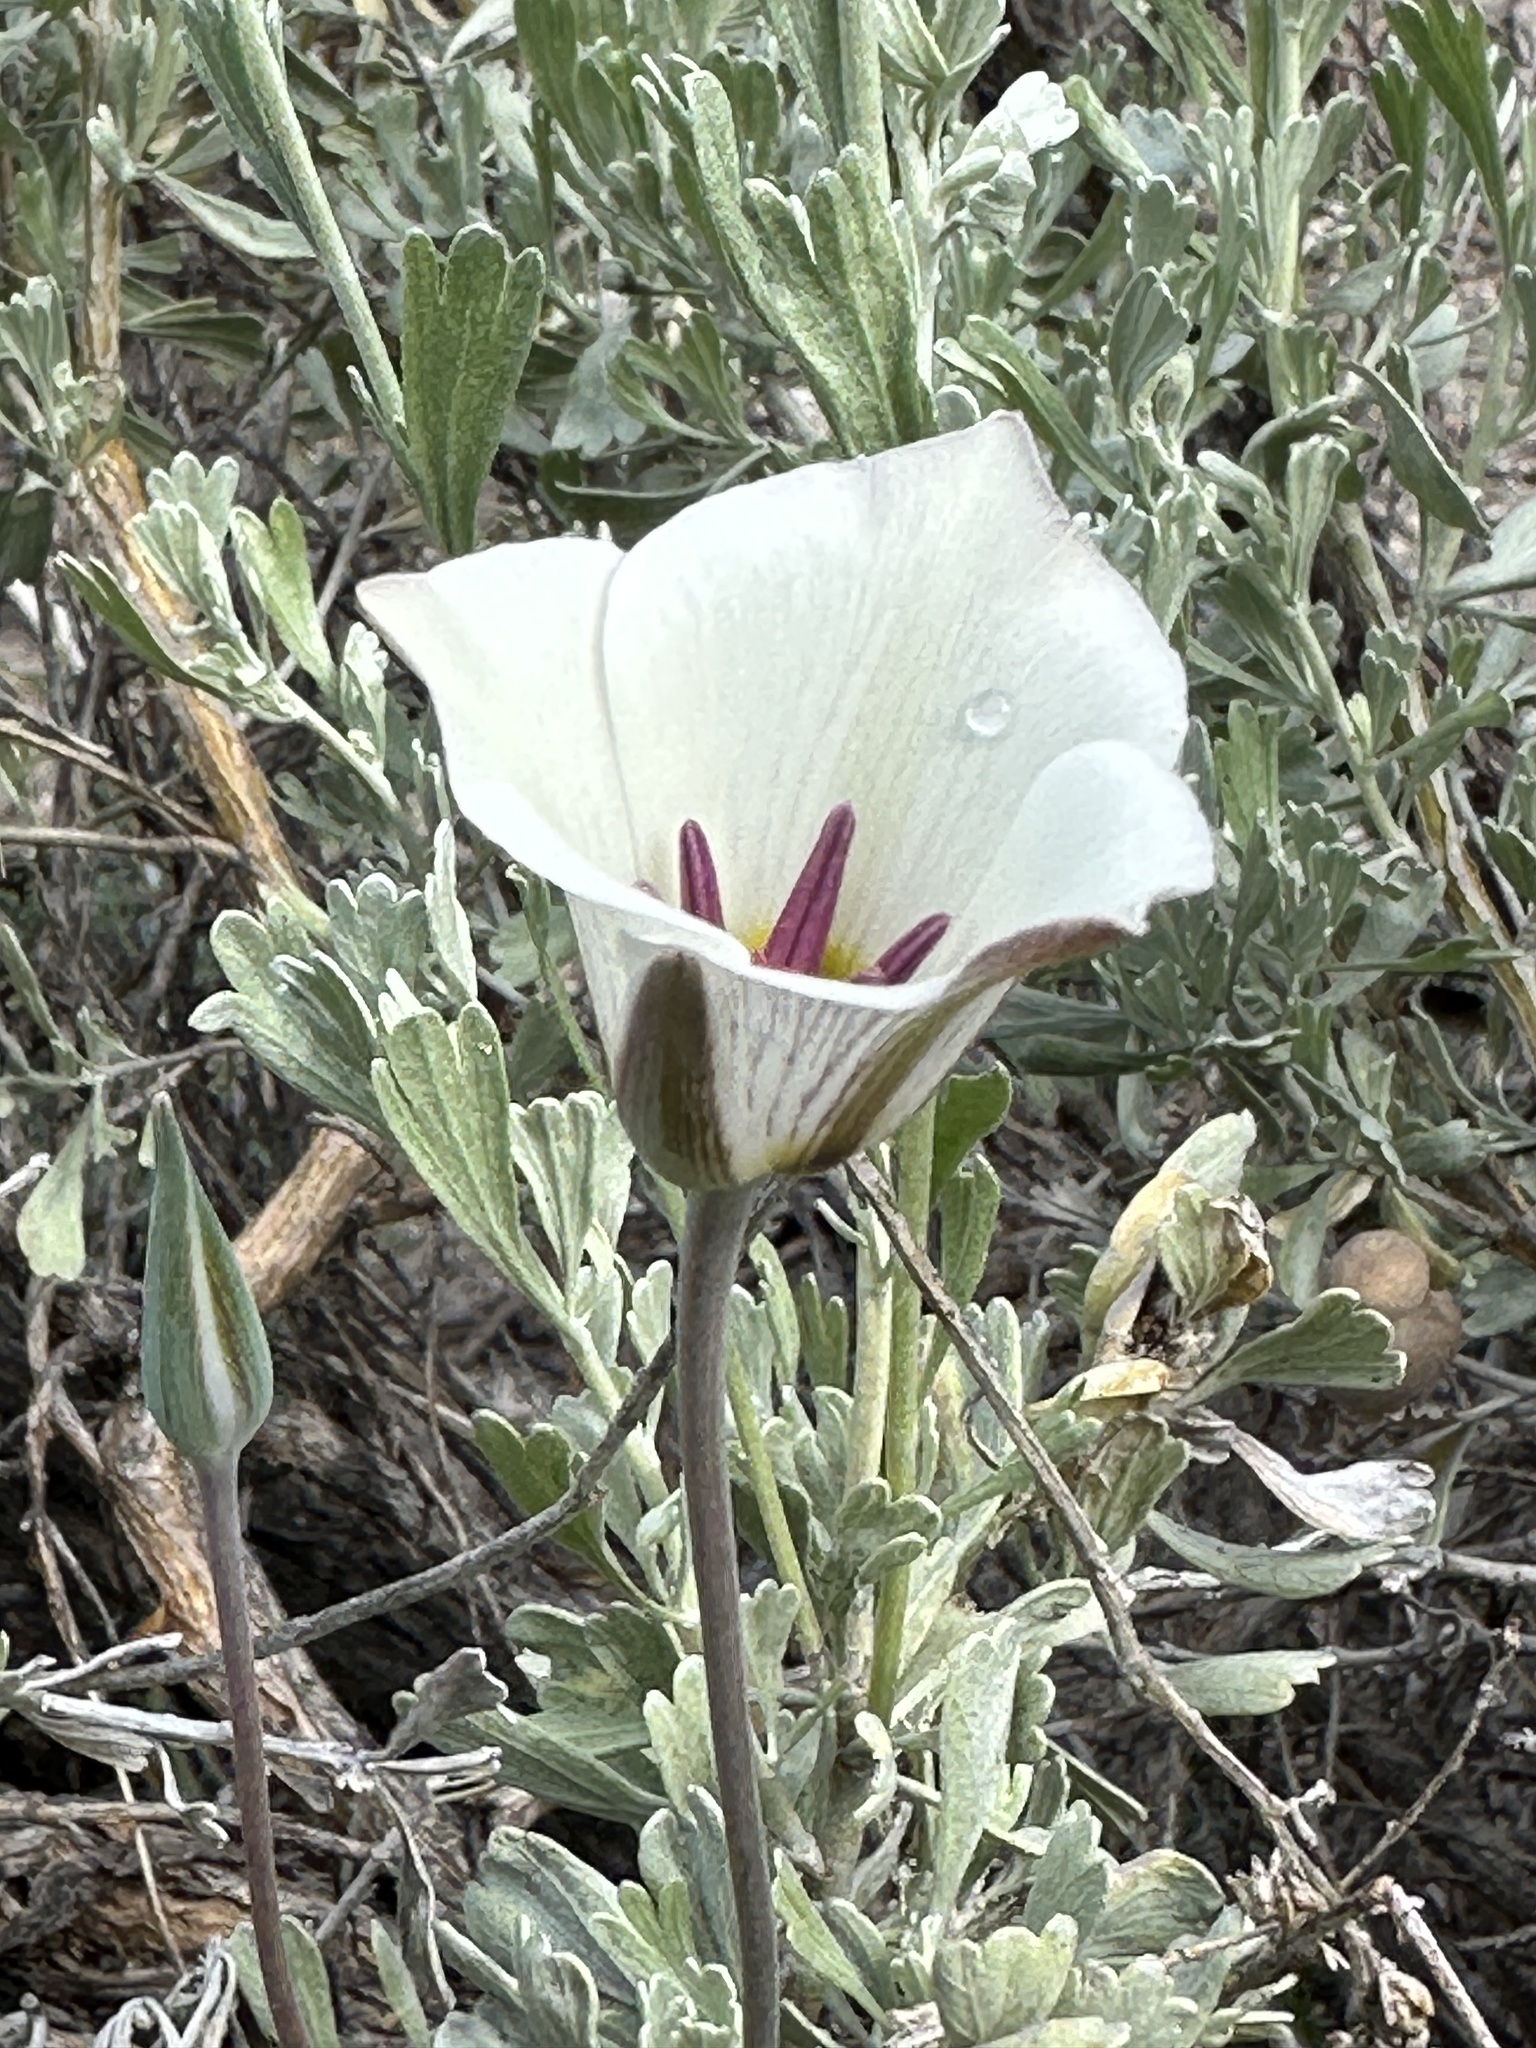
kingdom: Plantae
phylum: Tracheophyta
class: Liliopsida
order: Liliales
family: Liliaceae
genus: Calochortus
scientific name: Calochortus bruneaunis
